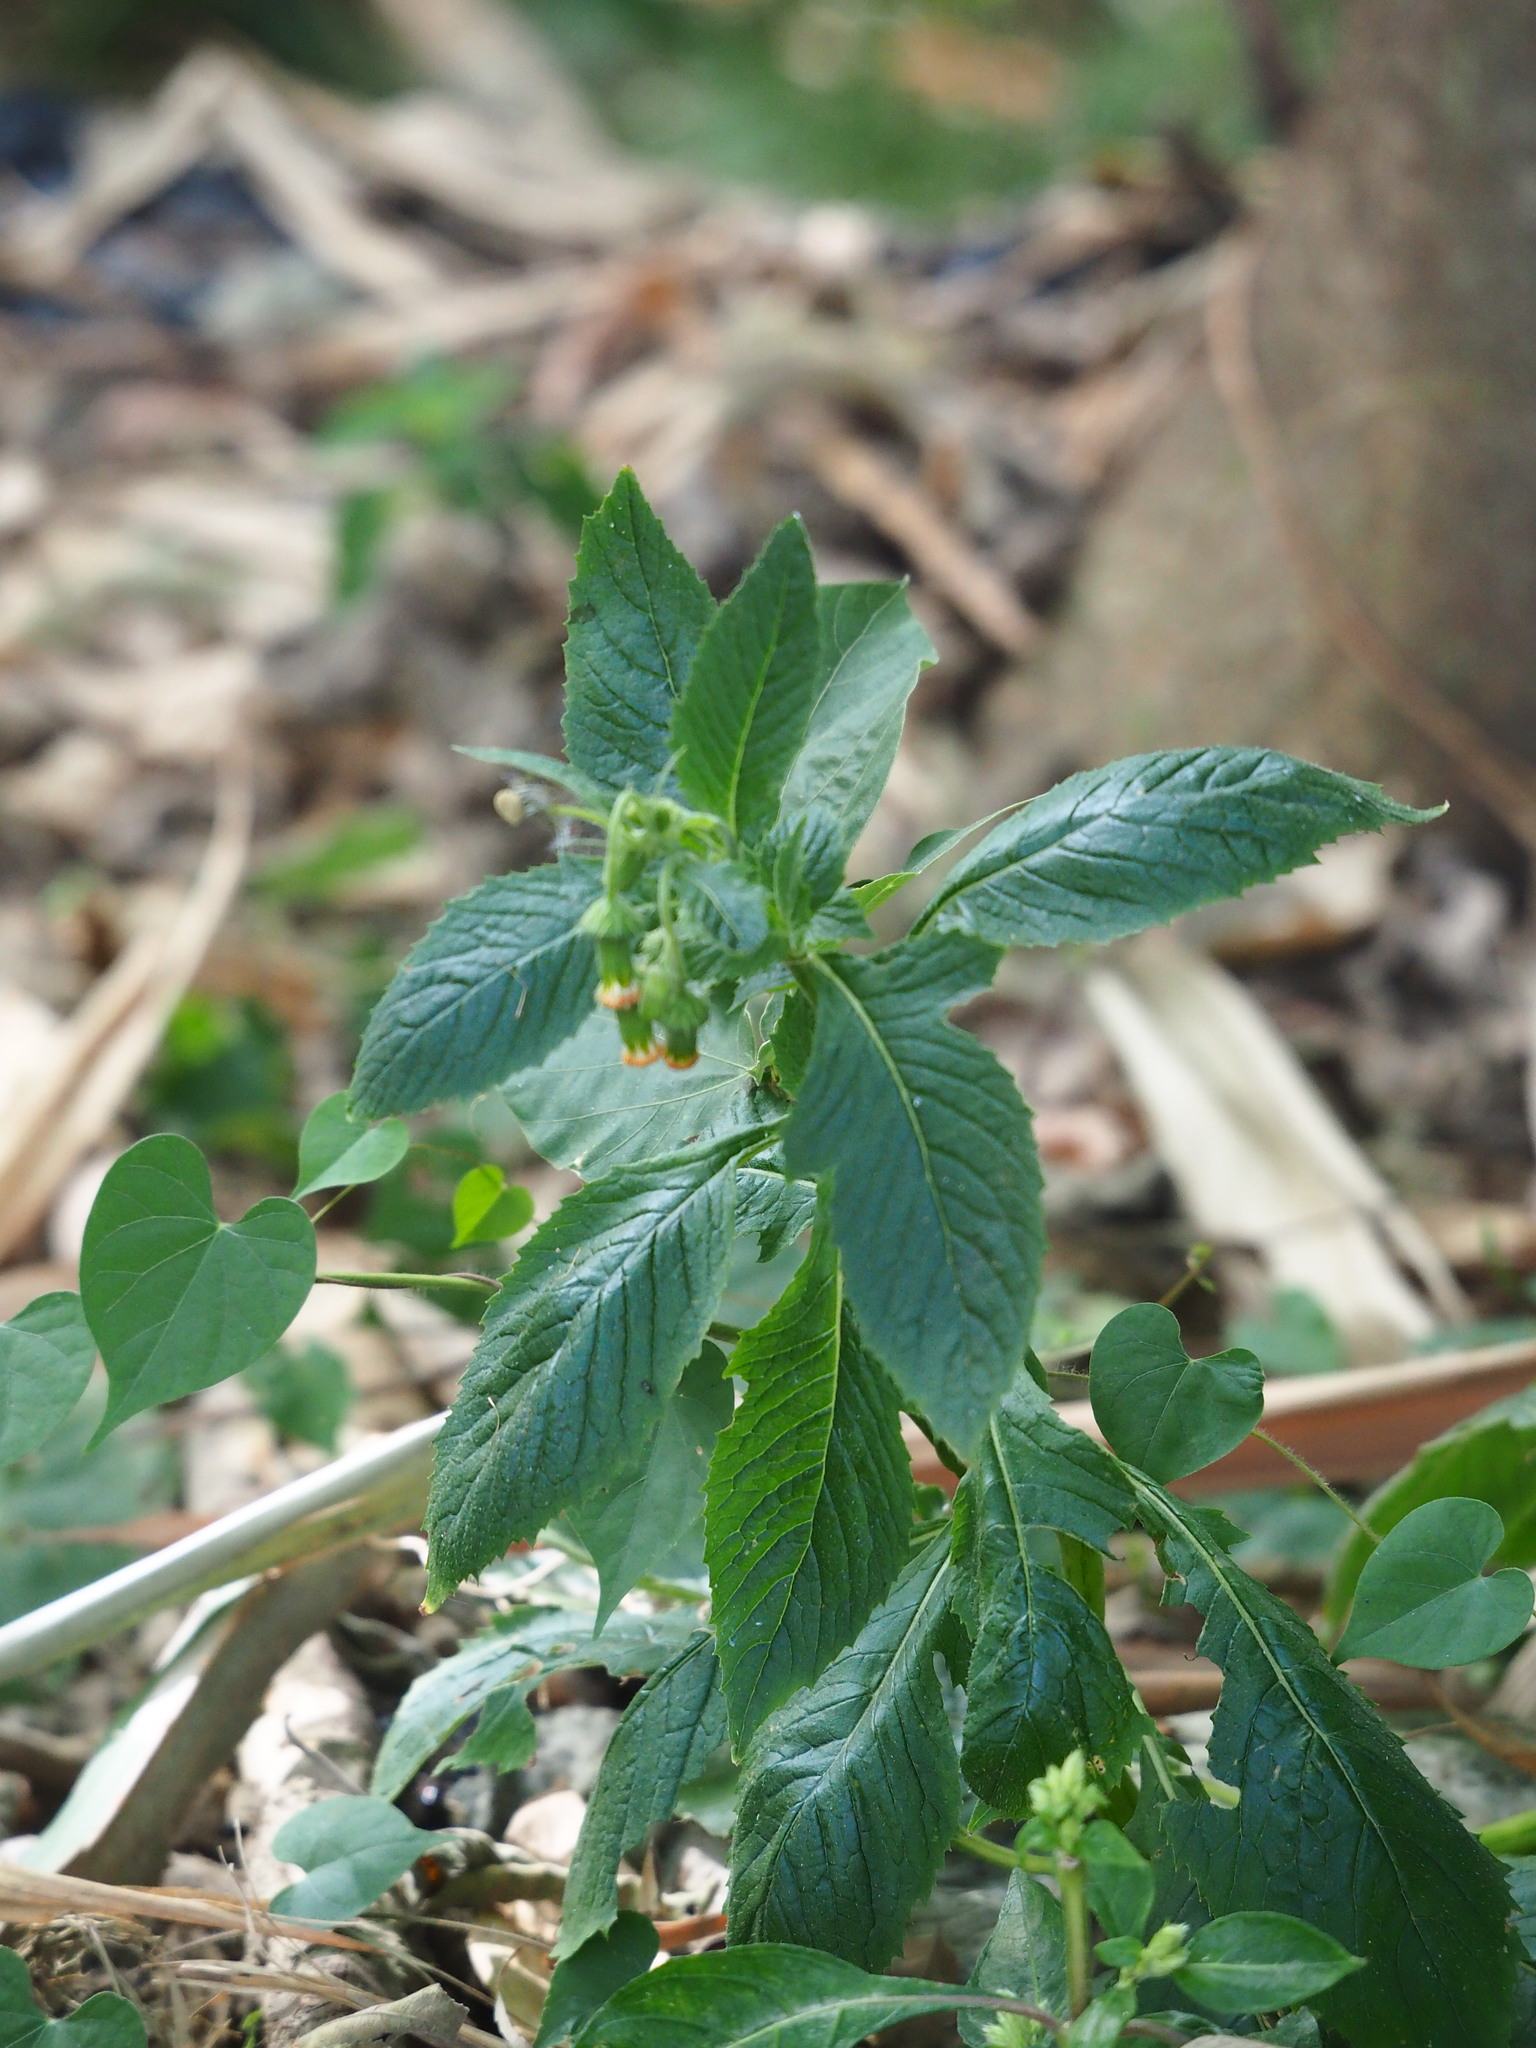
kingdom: Plantae
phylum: Tracheophyta
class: Magnoliopsida
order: Asterales
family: Asteraceae
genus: Crassocephalum
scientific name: Crassocephalum crepidioides
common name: Redflower ragleaf
